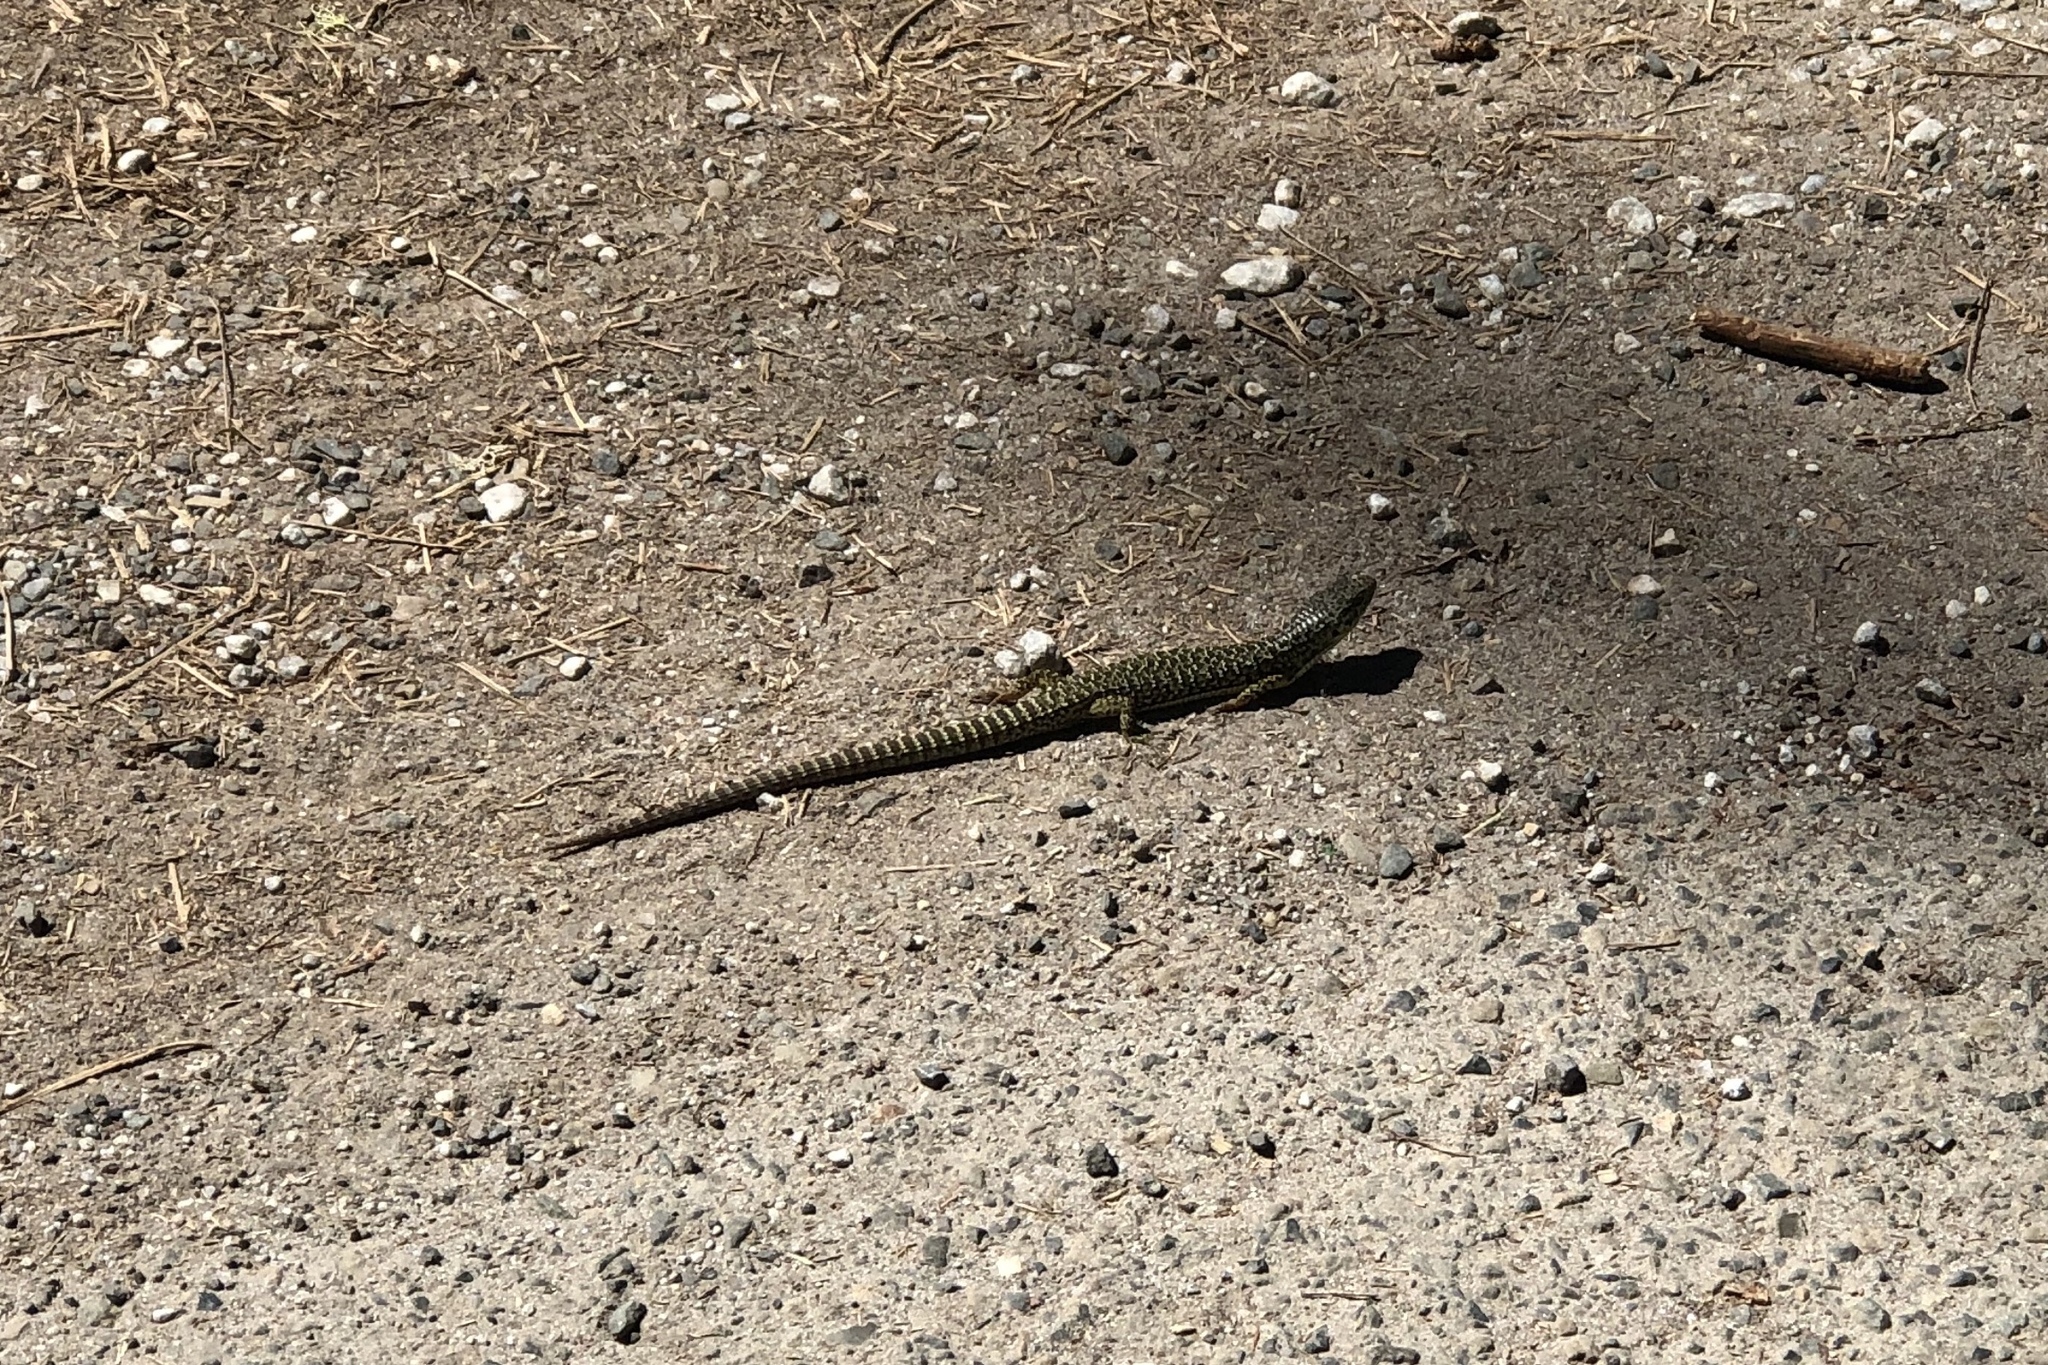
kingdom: Animalia
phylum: Chordata
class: Squamata
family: Anguidae
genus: Elgaria
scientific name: Elgaria coerulea
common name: Northern alligator lizard
